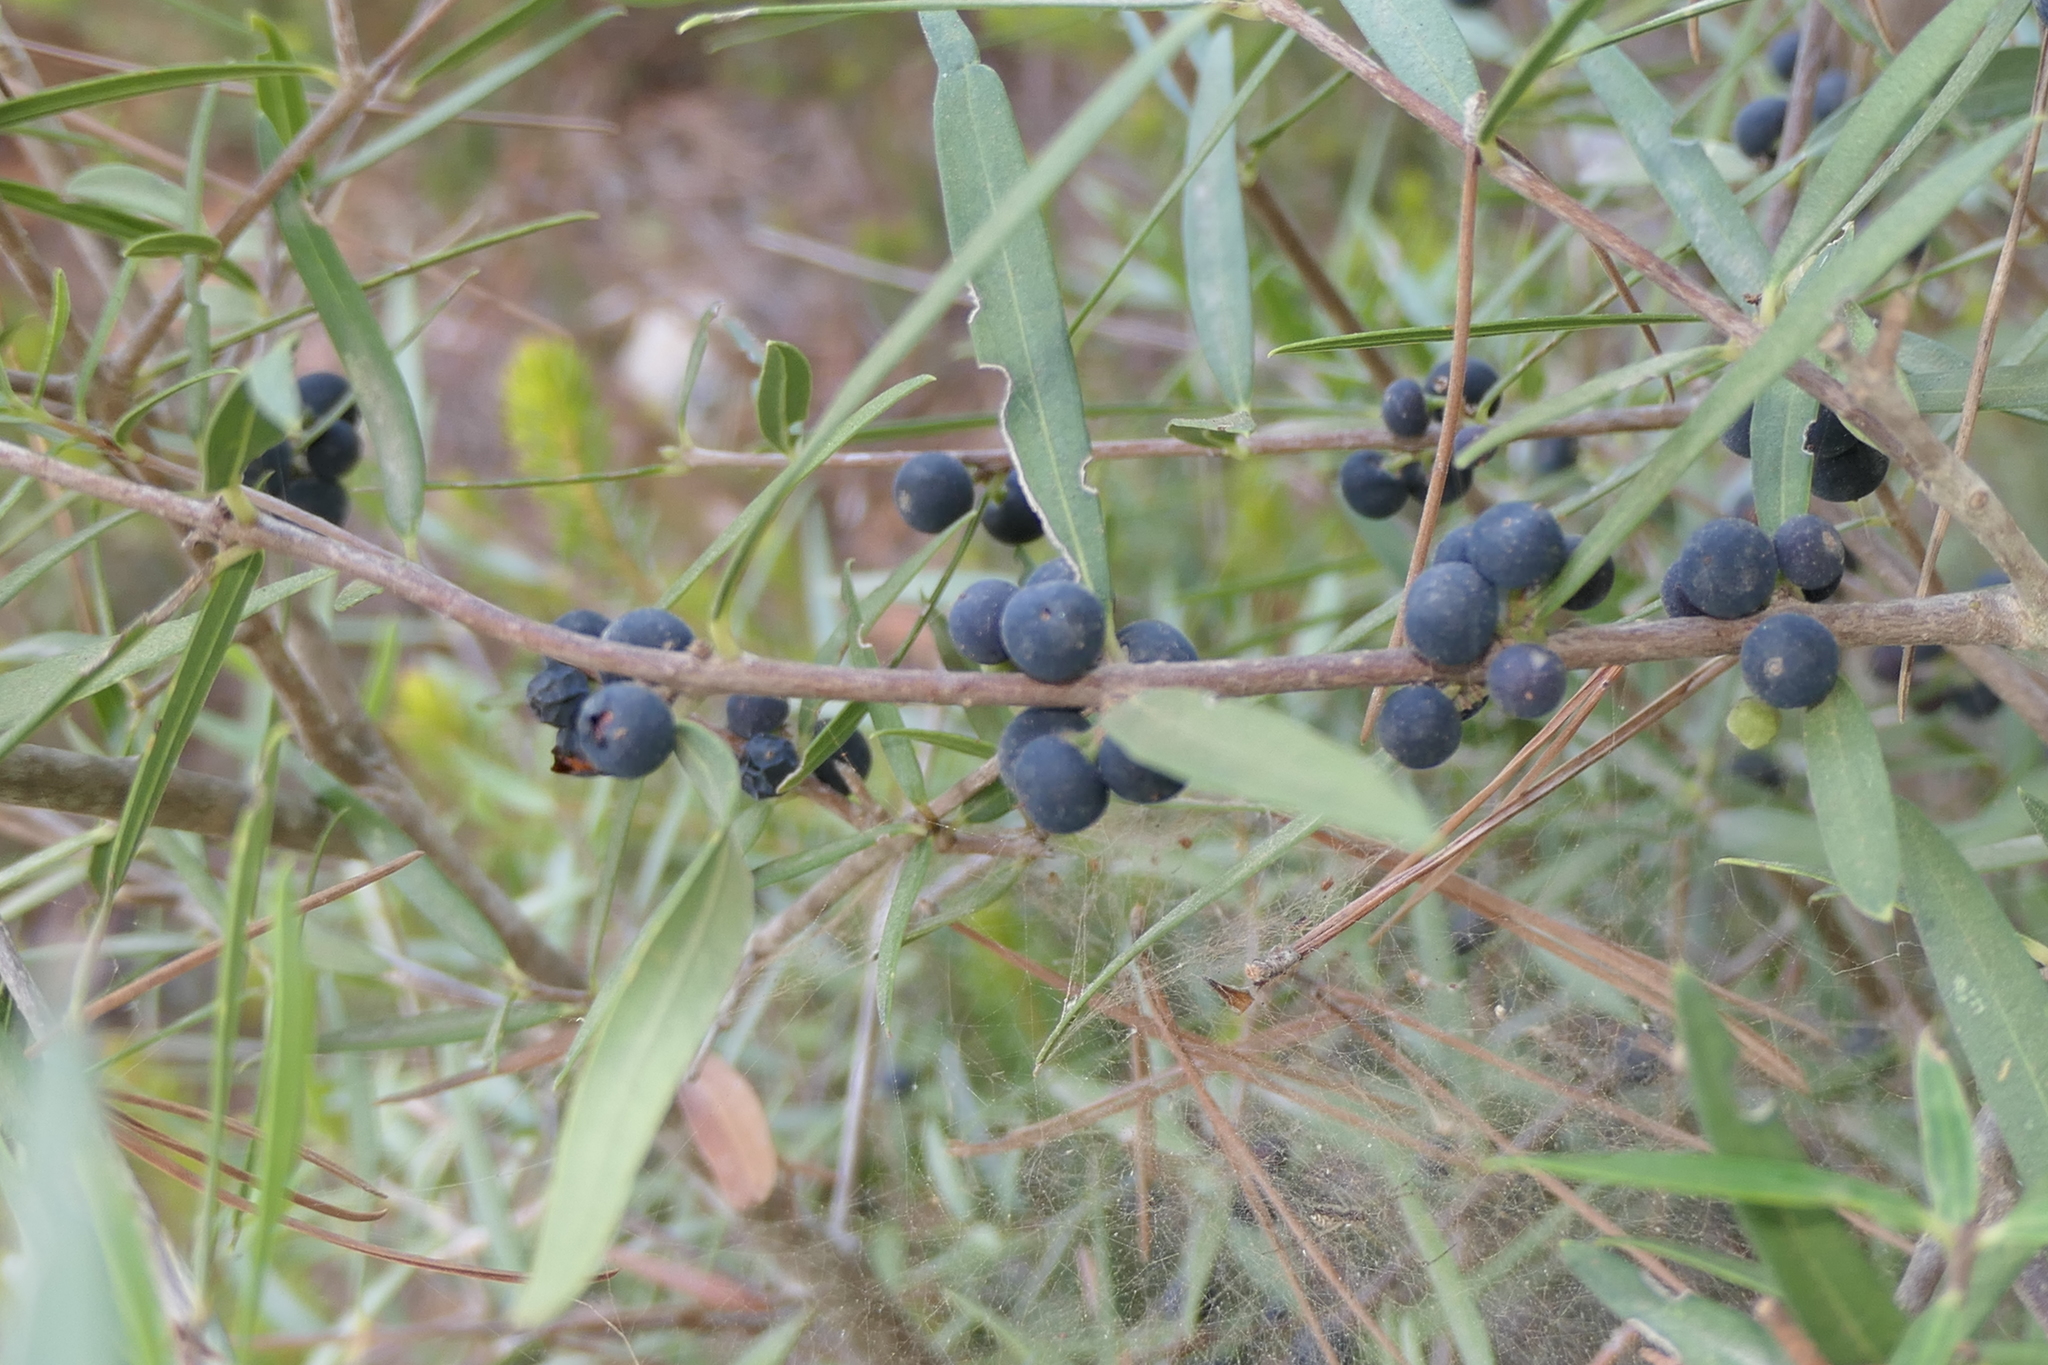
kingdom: Plantae
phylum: Tracheophyta
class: Magnoliopsida
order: Lamiales
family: Oleaceae
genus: Phillyrea
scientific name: Phillyrea angustifolia
